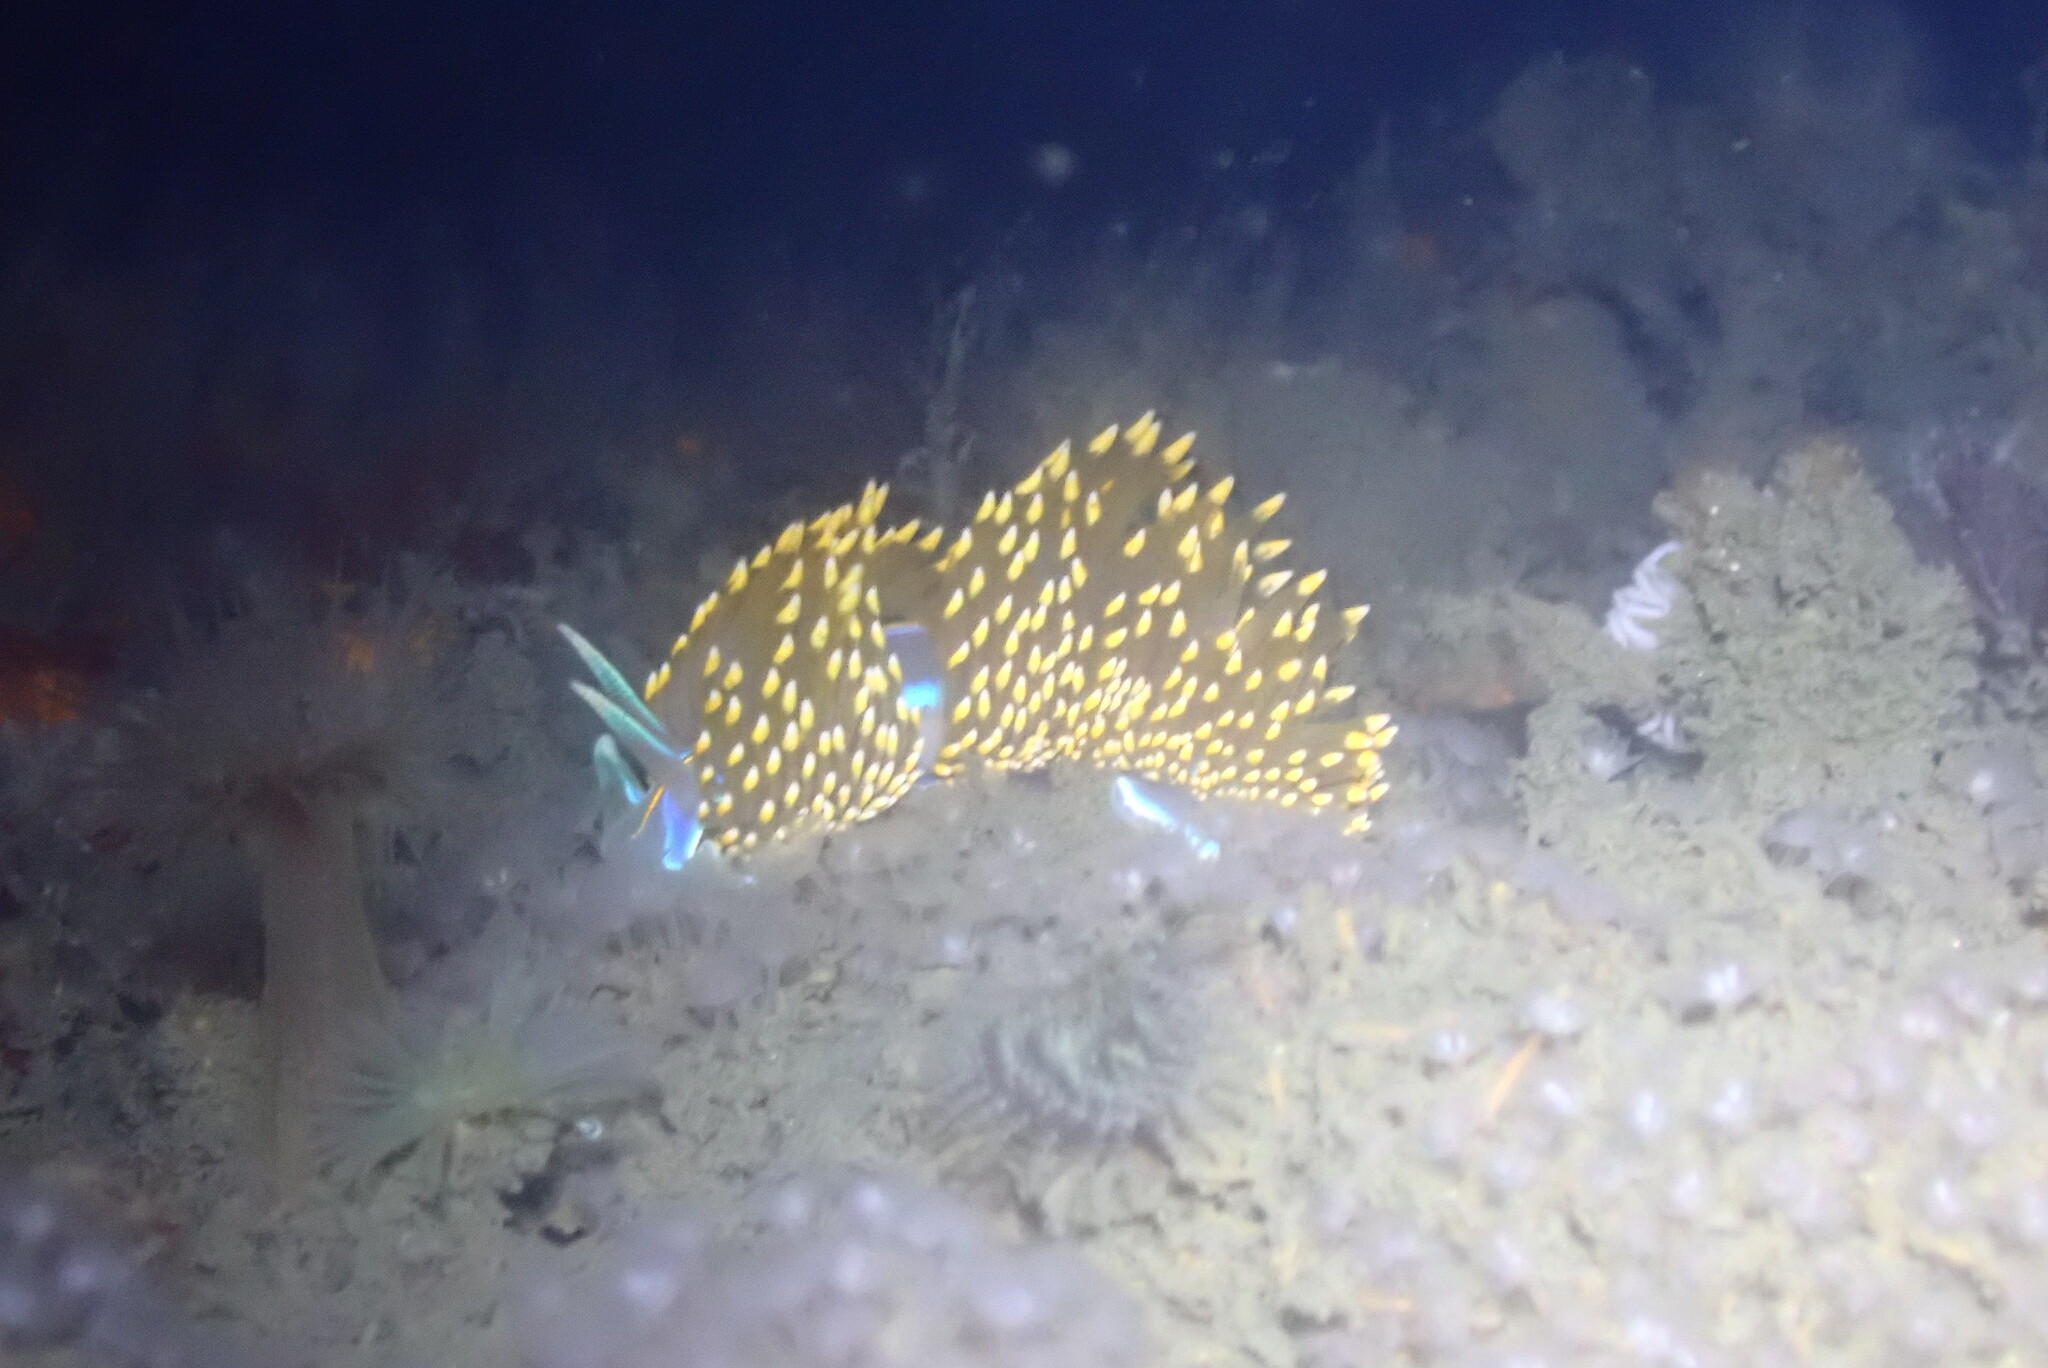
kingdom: Animalia
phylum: Mollusca
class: Gastropoda
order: Nudibranchia
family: Myrrhinidae
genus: Hermissenda
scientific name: Hermissenda opalescens
